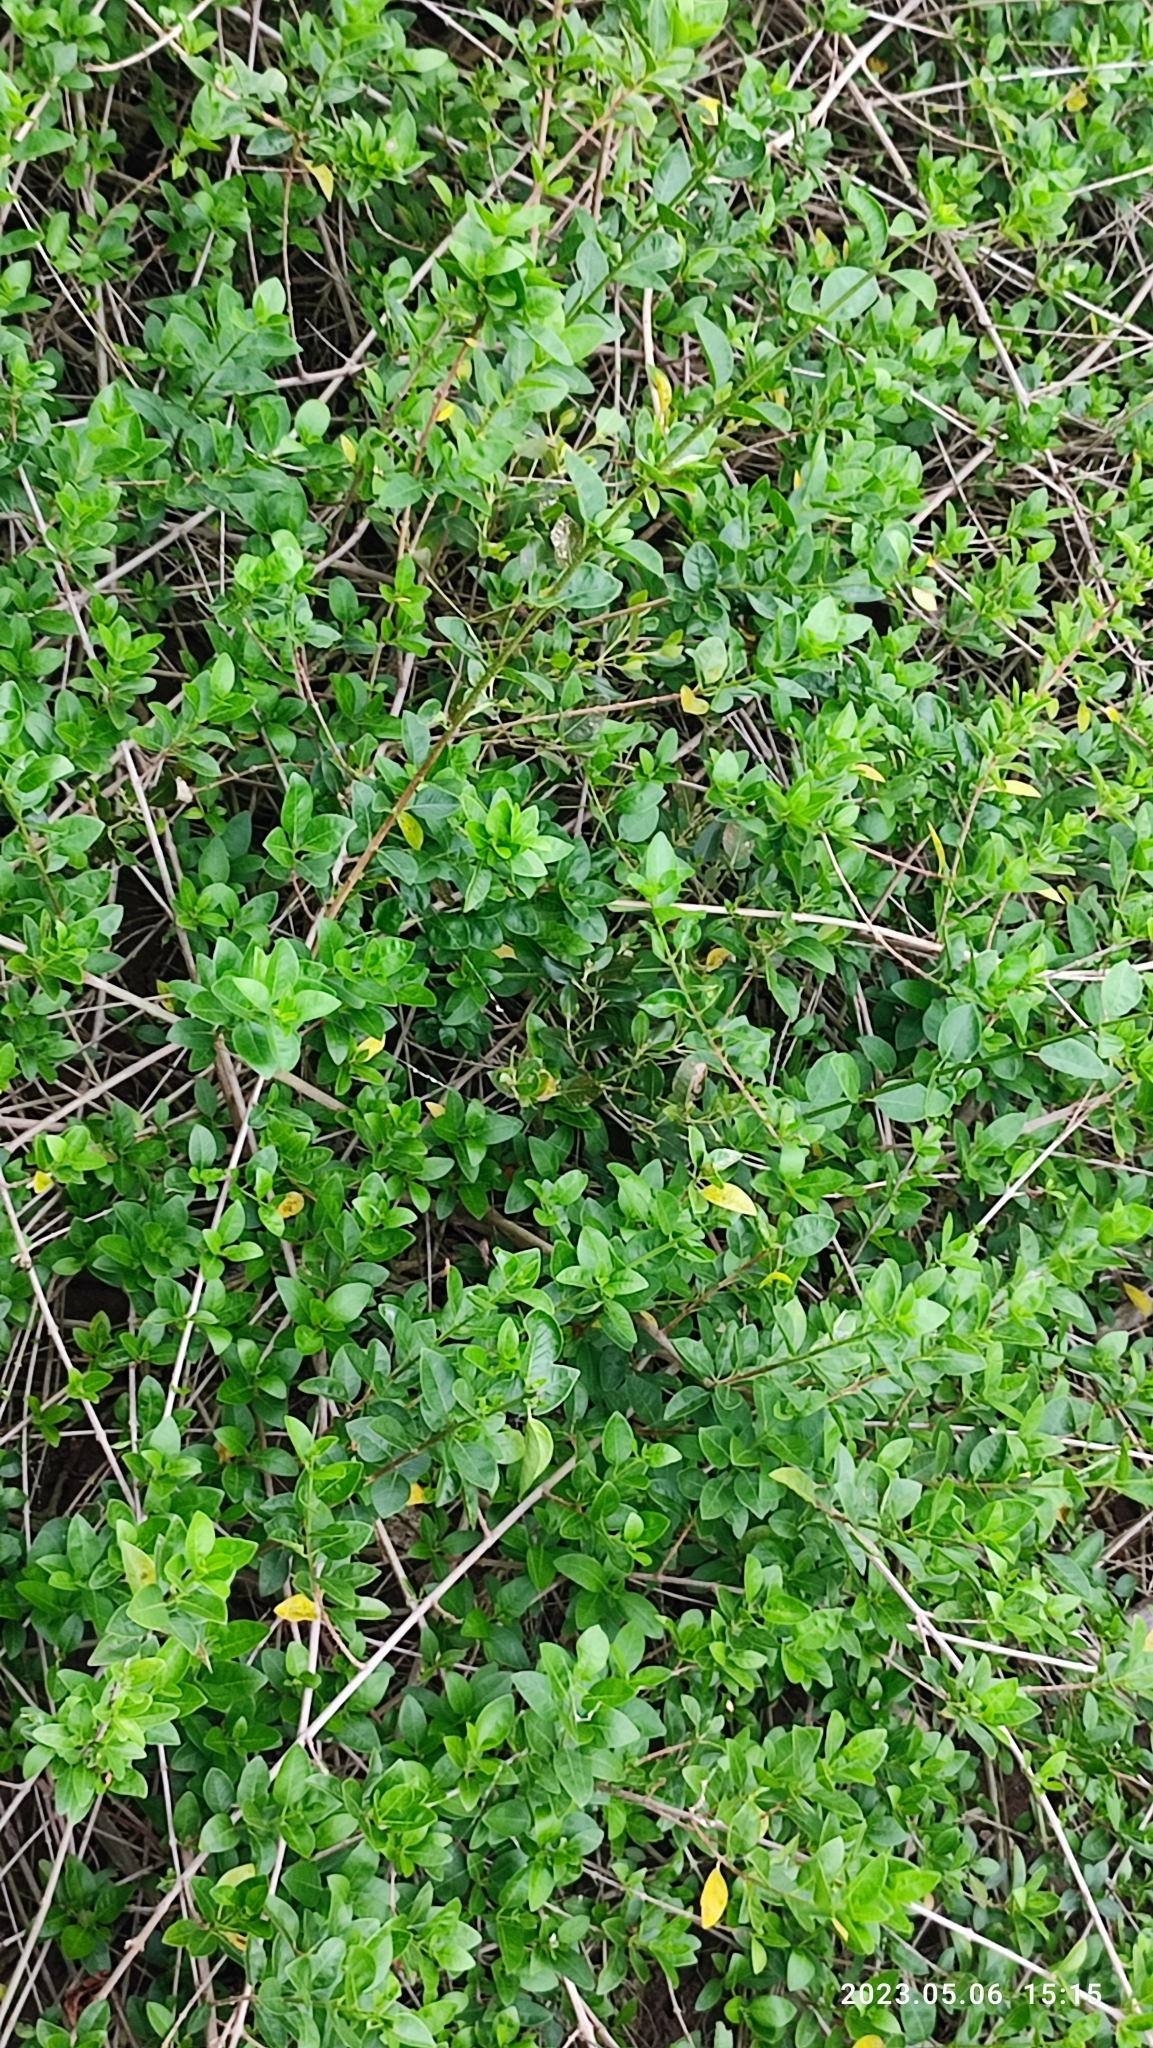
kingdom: Plantae
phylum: Tracheophyta
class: Magnoliopsida
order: Lamiales
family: Lamiaceae
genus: Volkameria
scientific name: Volkameria inermis
